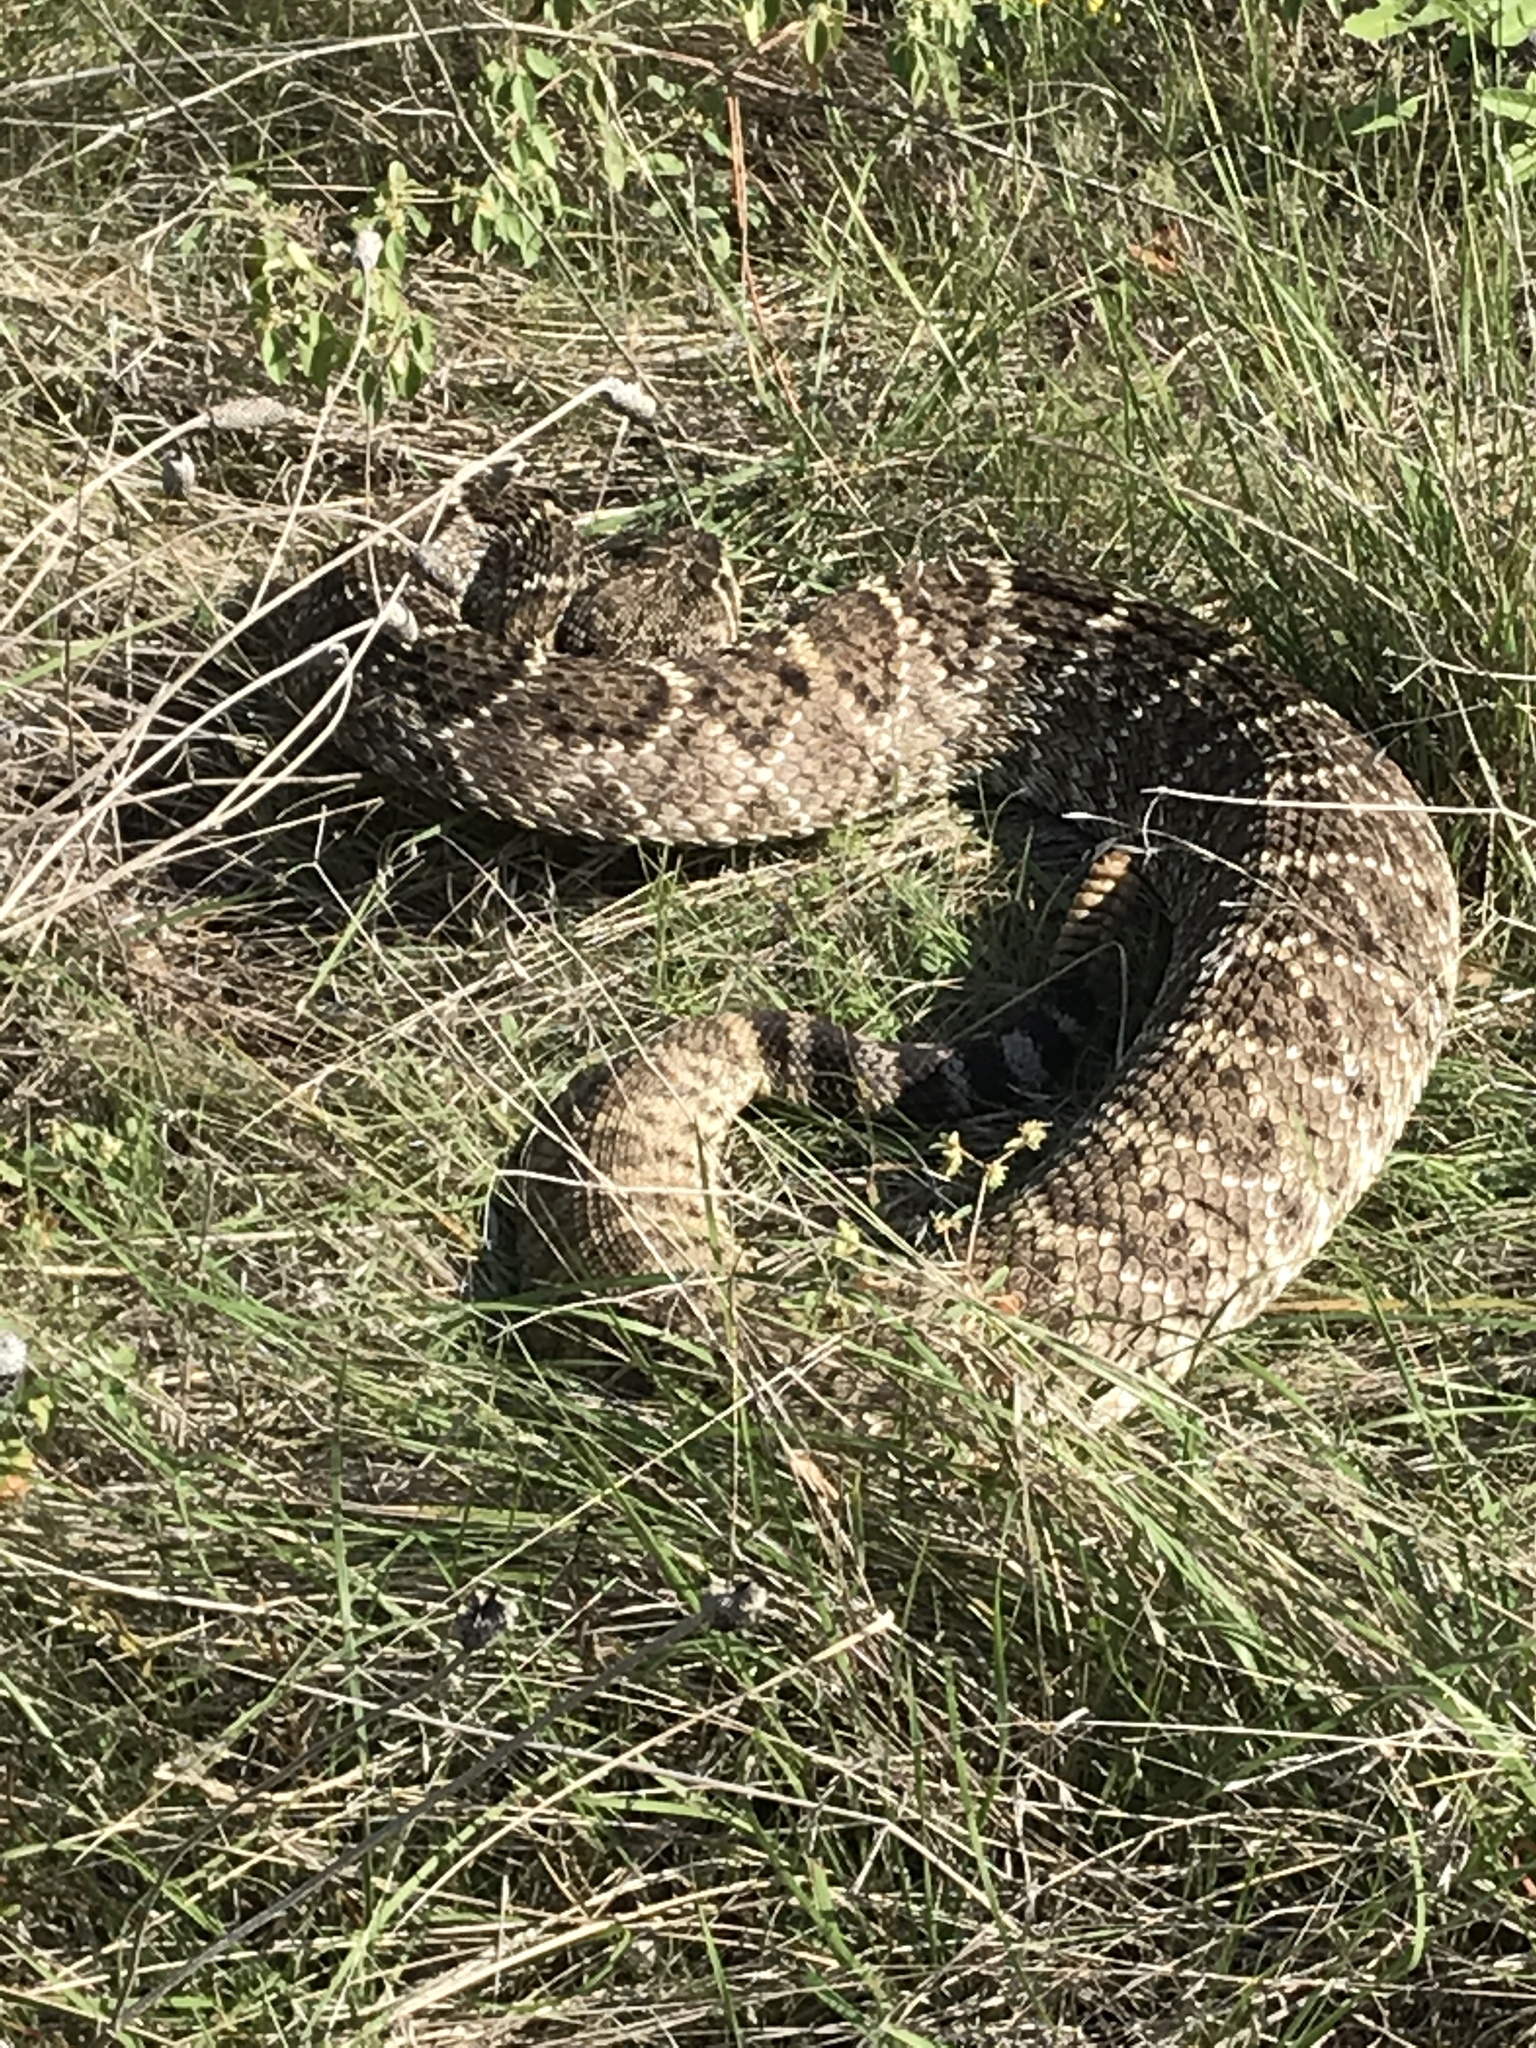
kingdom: Animalia
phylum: Chordata
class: Squamata
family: Viperidae
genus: Crotalus
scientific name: Crotalus atrox
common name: Western diamond-backed rattlesnake
